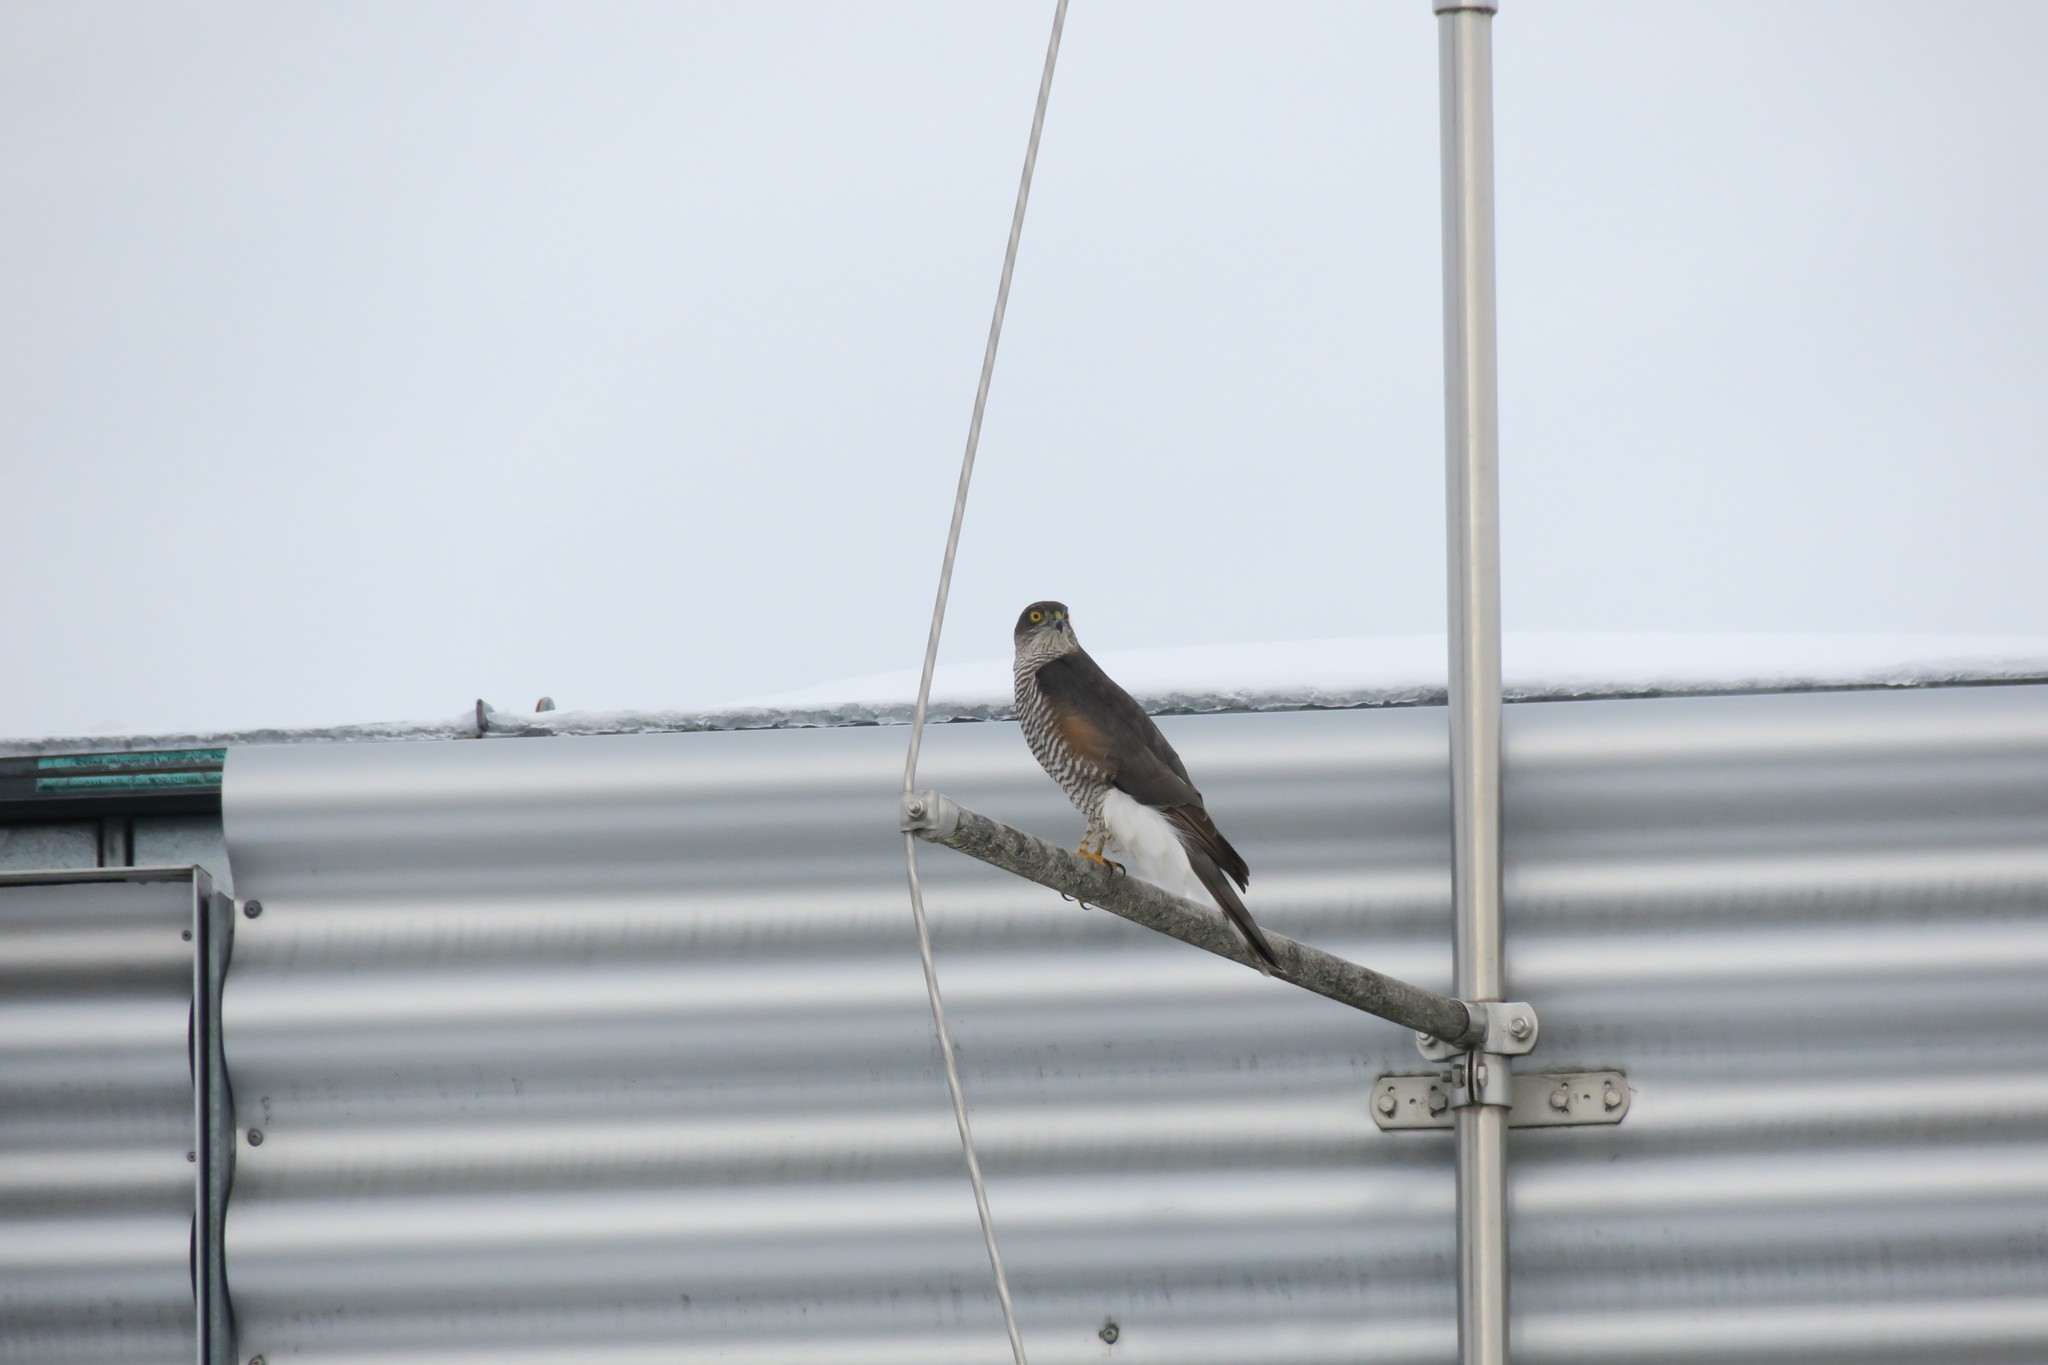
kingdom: Animalia
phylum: Chordata
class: Aves
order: Accipitriformes
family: Accipitridae
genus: Accipiter
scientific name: Accipiter nisus
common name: Eurasian sparrowhawk
